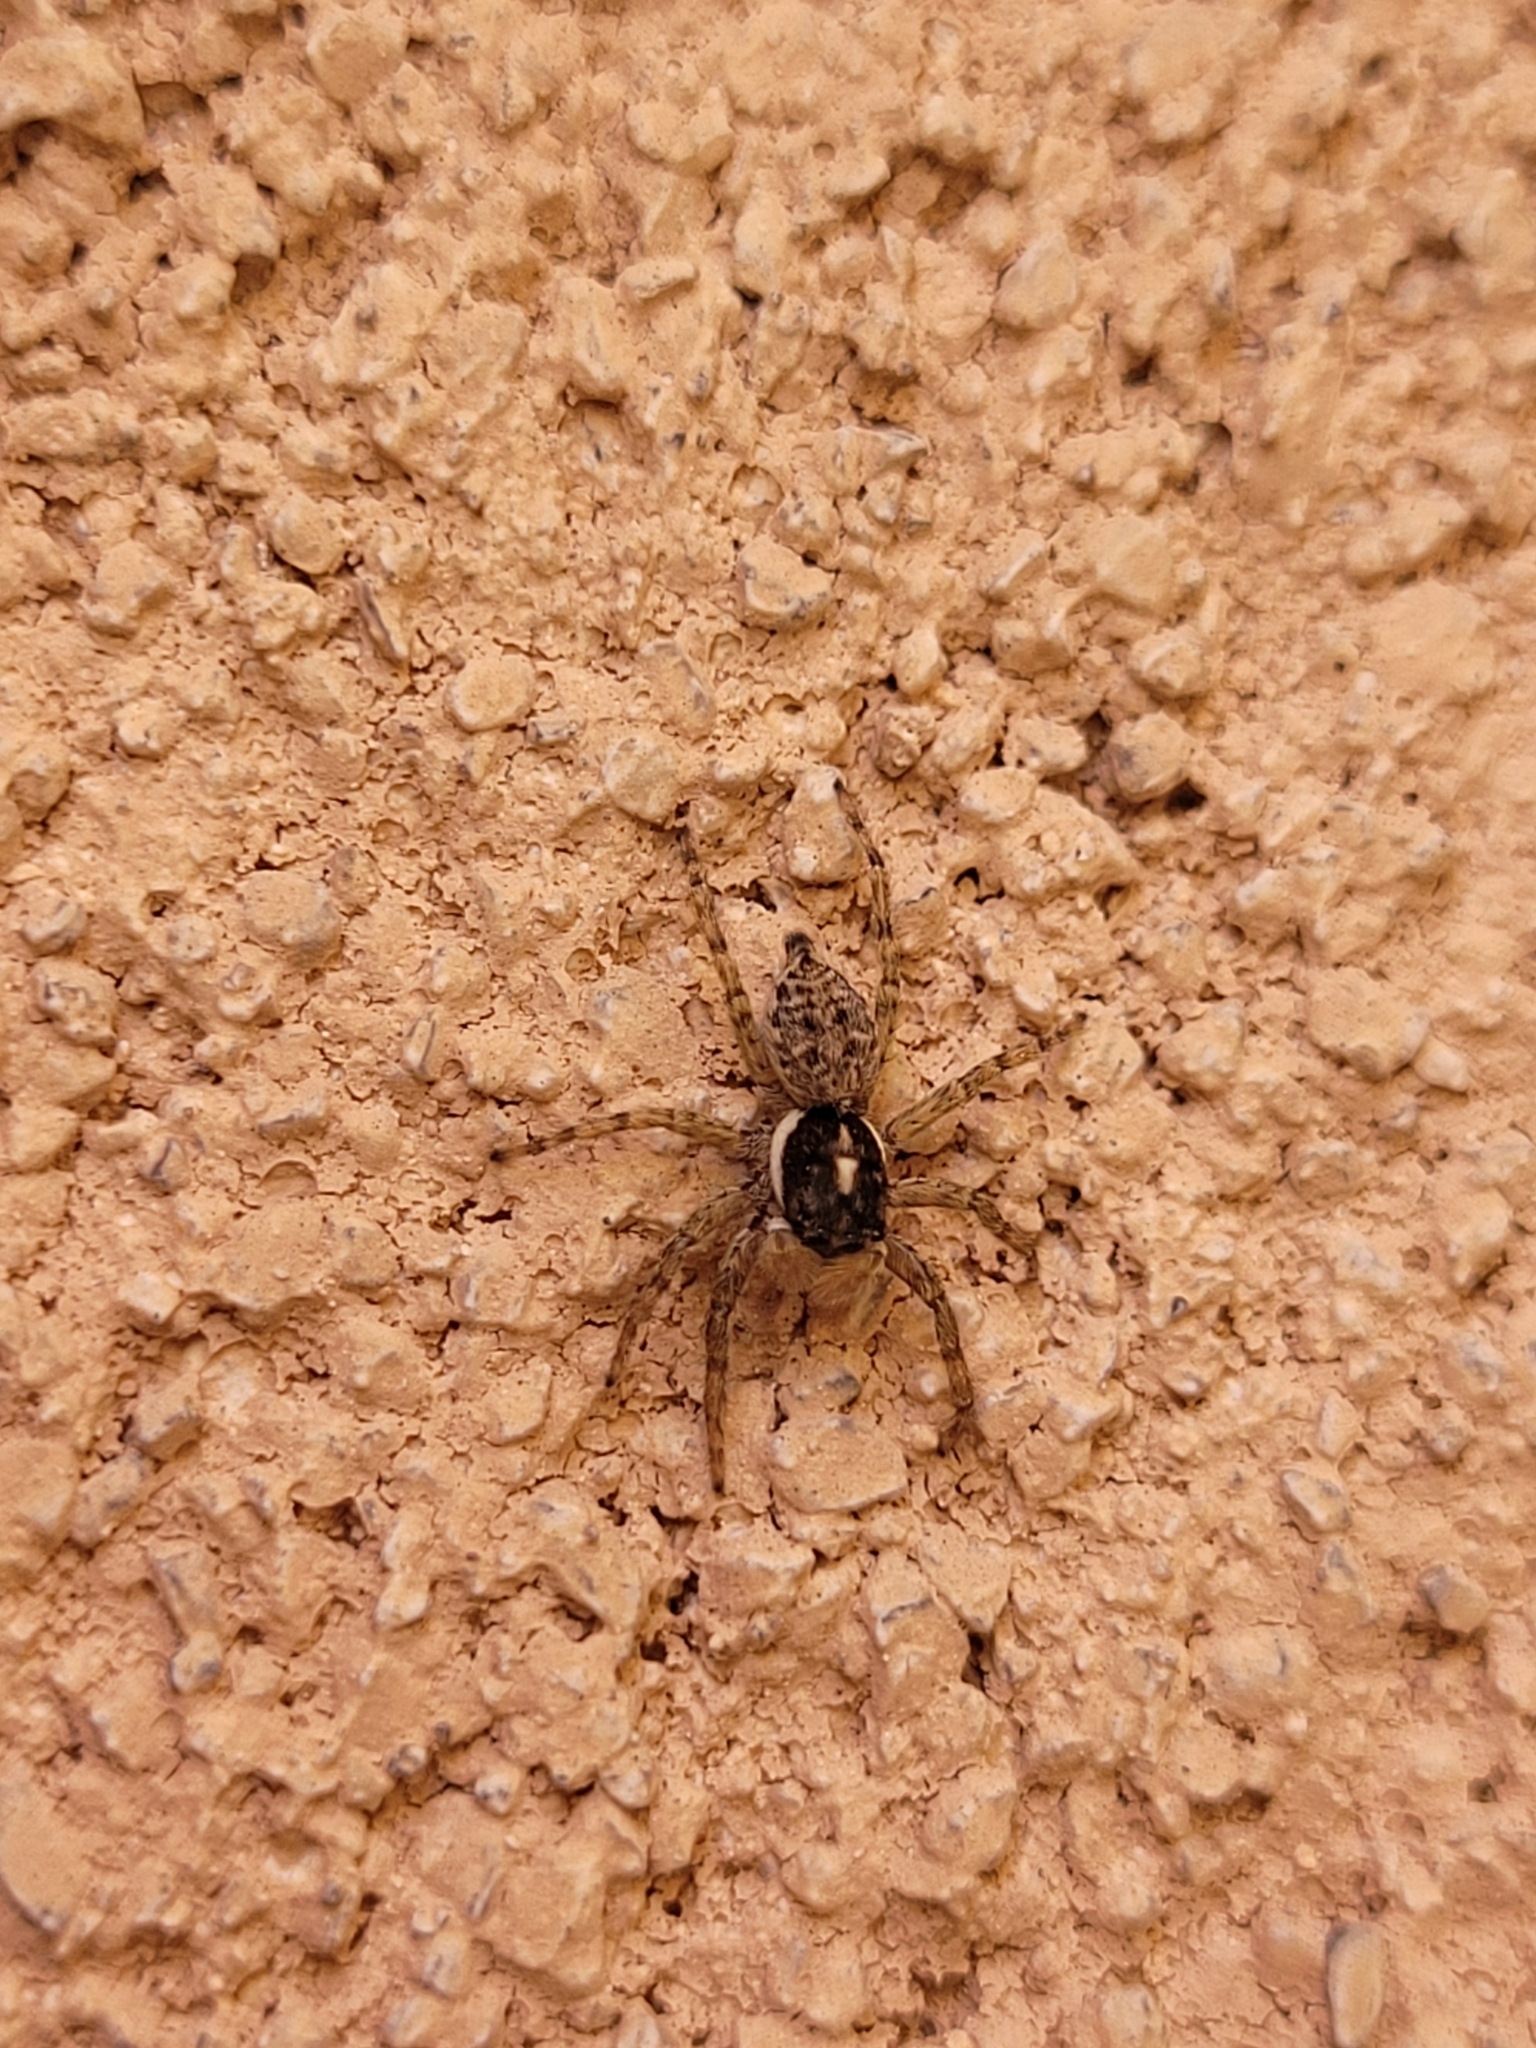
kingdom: Animalia
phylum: Arthropoda
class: Arachnida
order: Araneae
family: Salticidae
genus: Menemerus
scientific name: Menemerus semilimbatus
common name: Jumping spider
